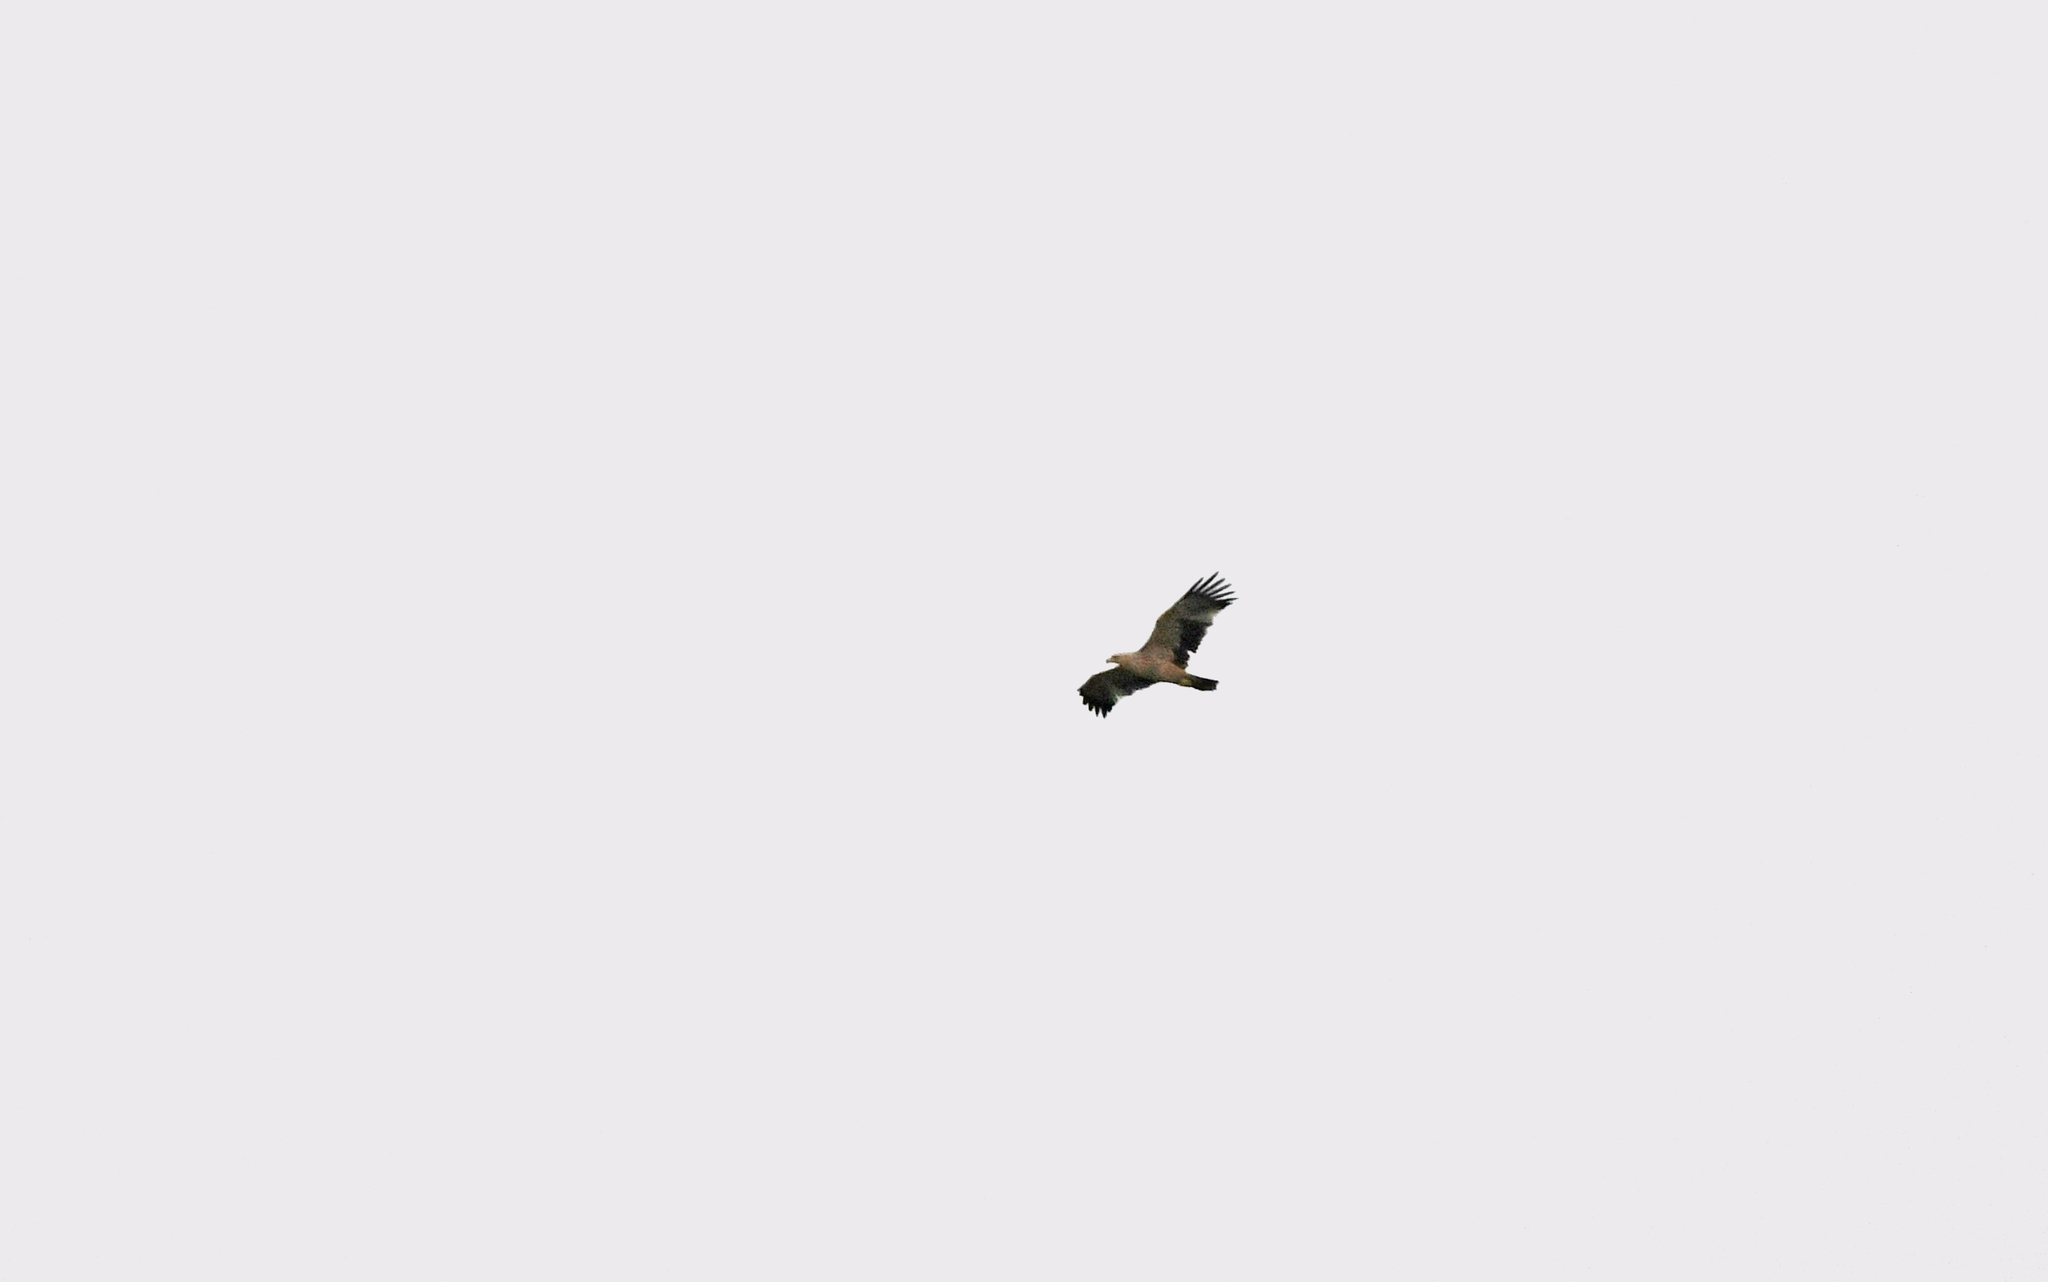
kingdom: Animalia
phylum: Chordata
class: Aves
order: Accipitriformes
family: Accipitridae
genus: Aquila
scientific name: Aquila heliaca
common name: Eastern imperial eagle
